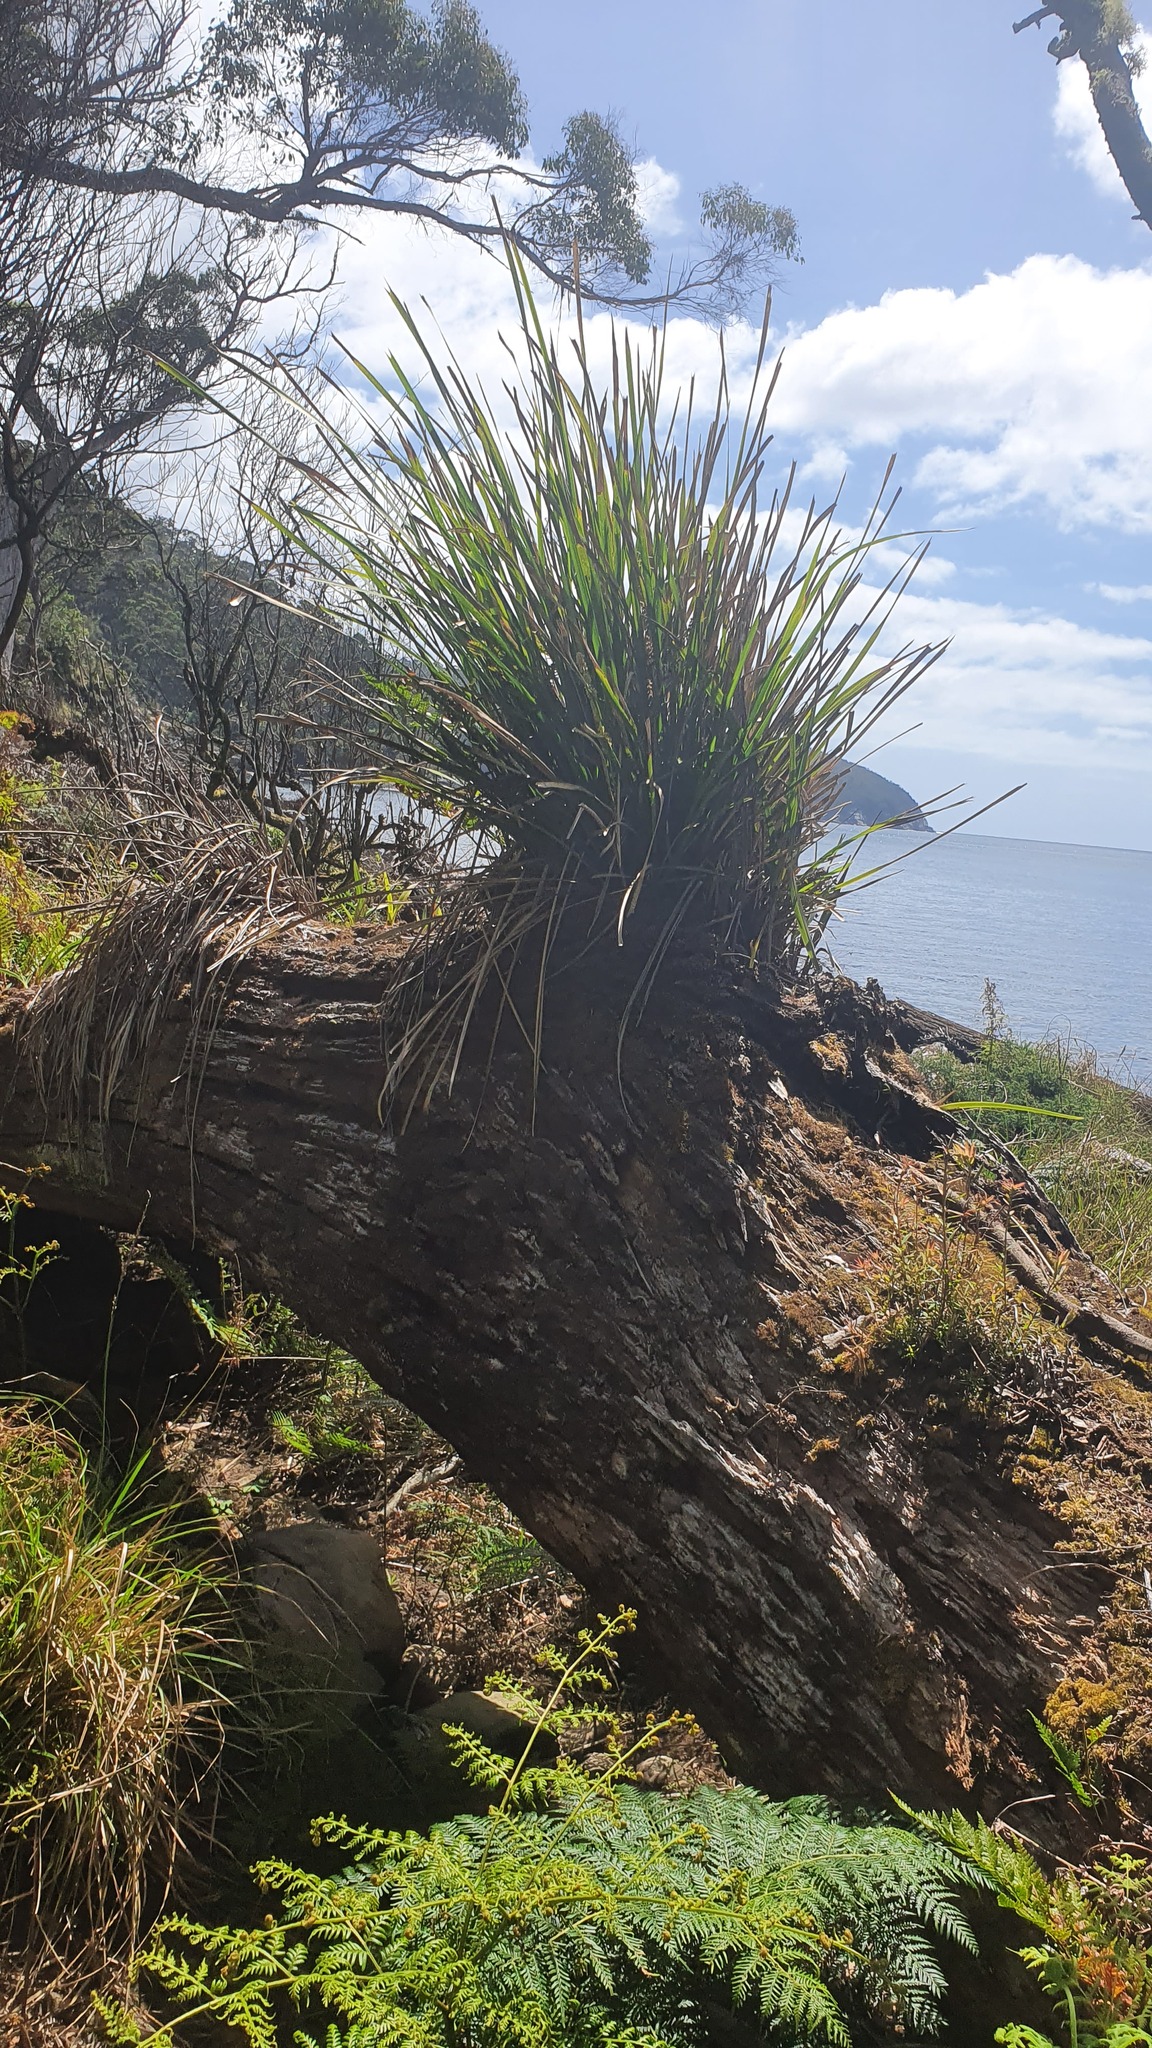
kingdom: Plantae
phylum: Tracheophyta
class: Liliopsida
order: Asparagales
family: Asparagaceae
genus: Lomandra
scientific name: Lomandra longifolia
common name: Longleaf mat-rush
